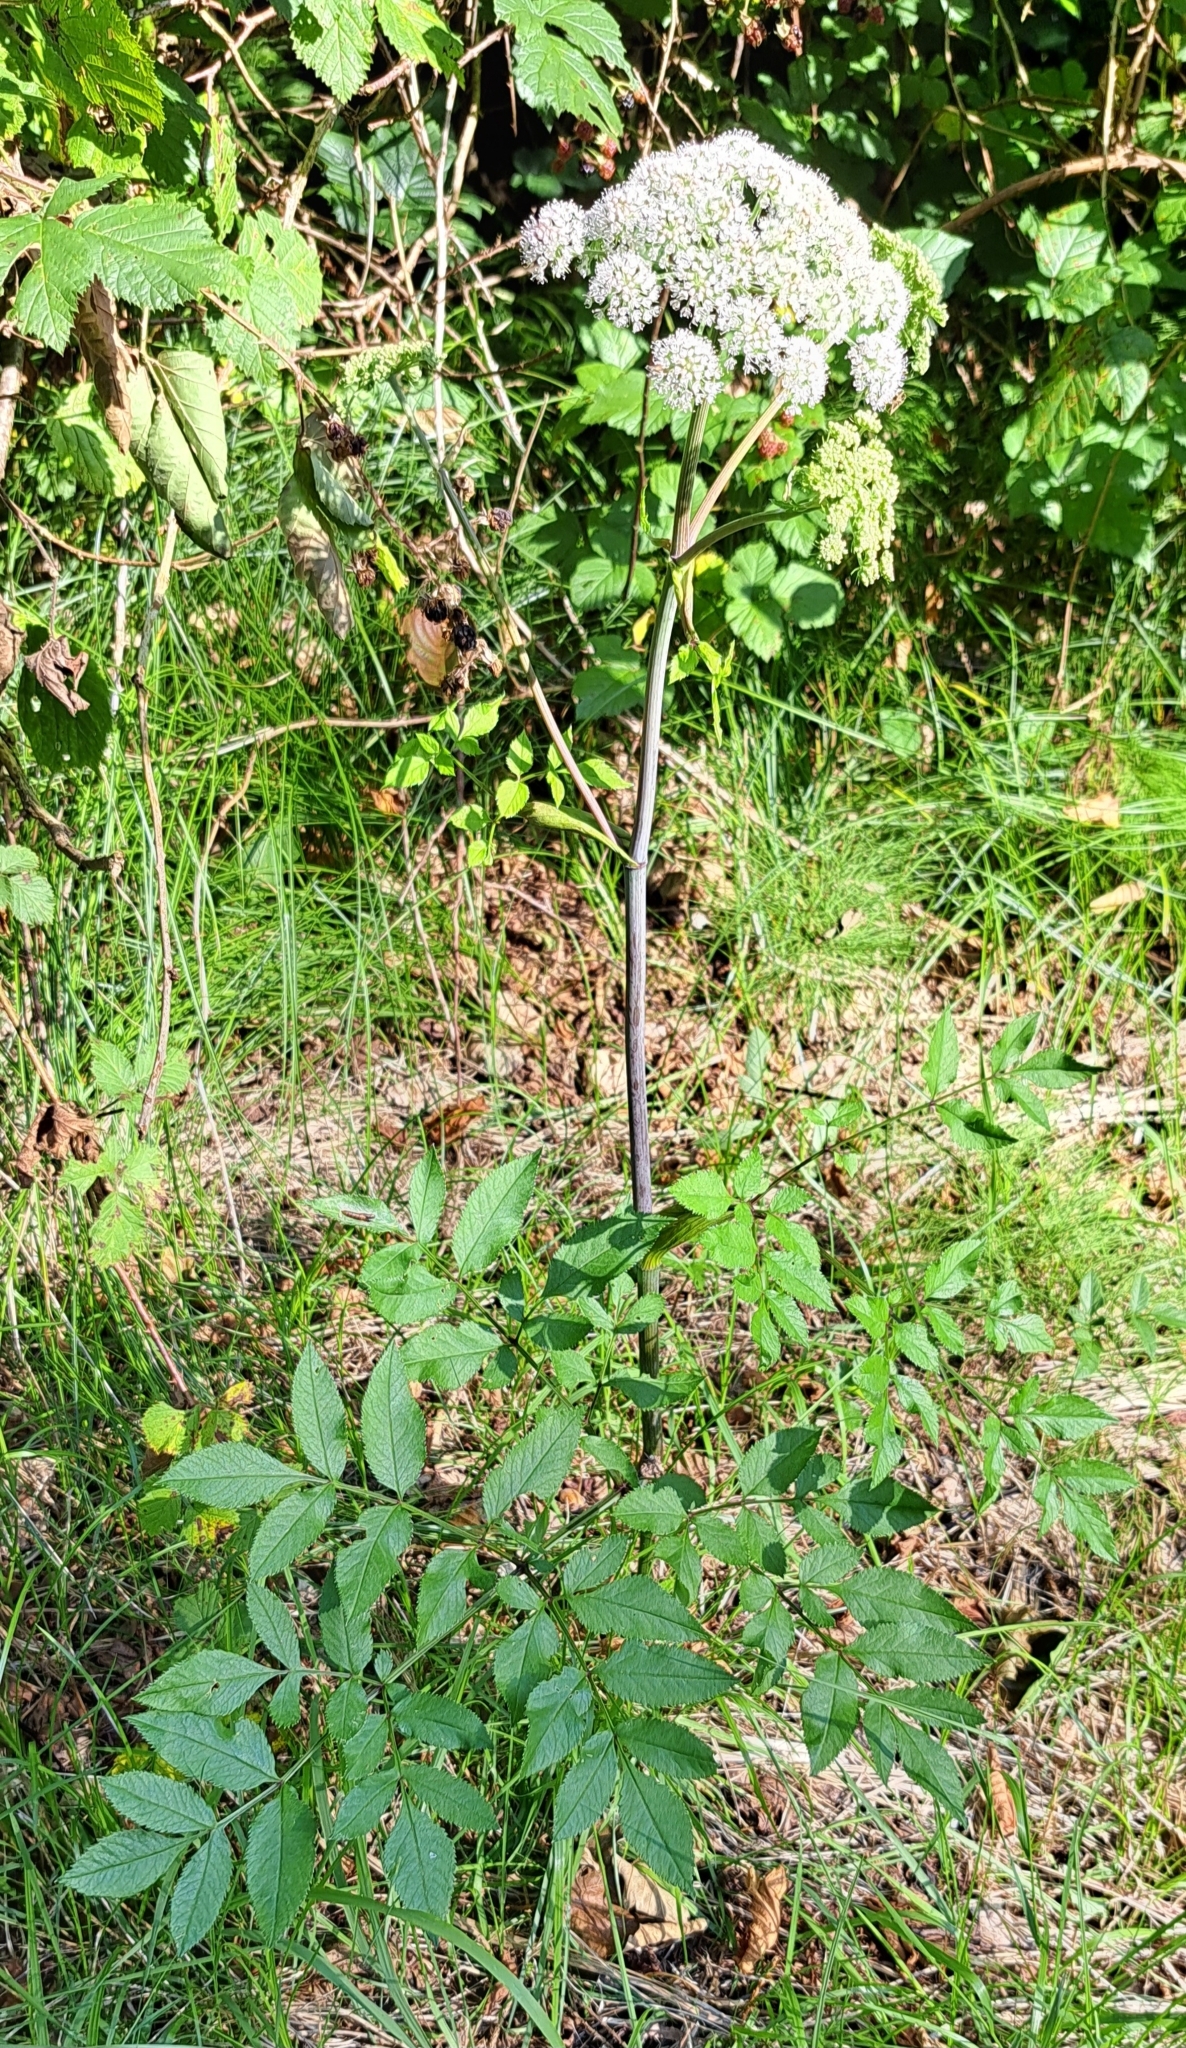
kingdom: Plantae
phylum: Tracheophyta
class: Magnoliopsida
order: Apiales
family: Apiaceae
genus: Angelica
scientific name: Angelica sylvestris
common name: Wild angelica
